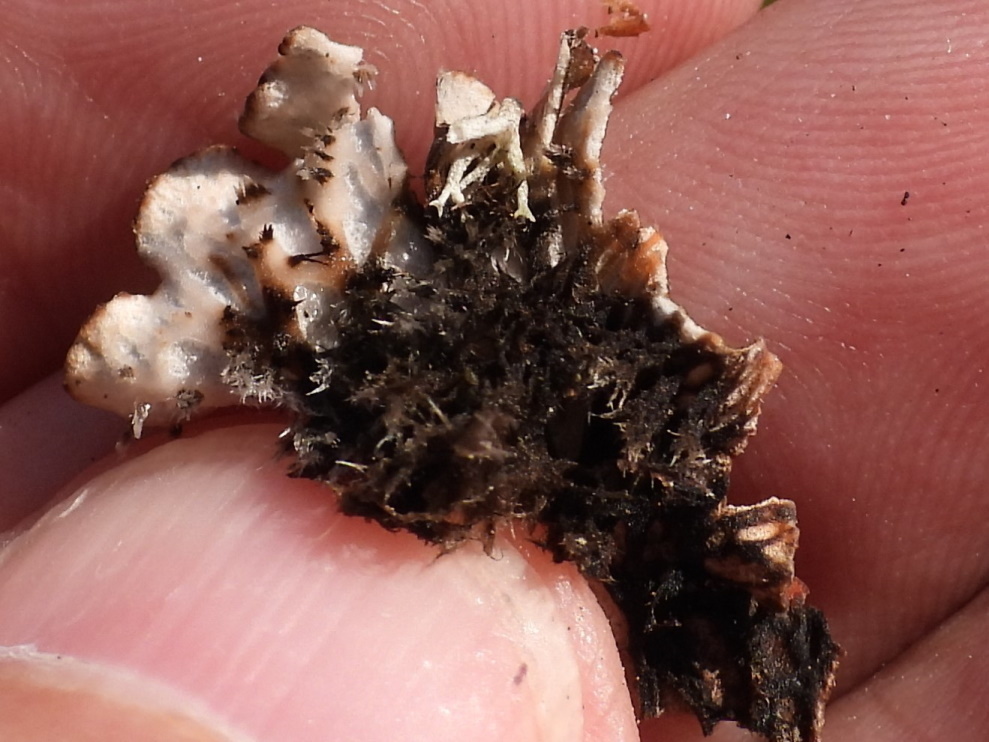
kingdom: Fungi
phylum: Ascomycota
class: Lecanoromycetes
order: Peltigerales
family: Peltigeraceae
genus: Peltigera
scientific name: Peltigera rufescens
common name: Field dog lichen
